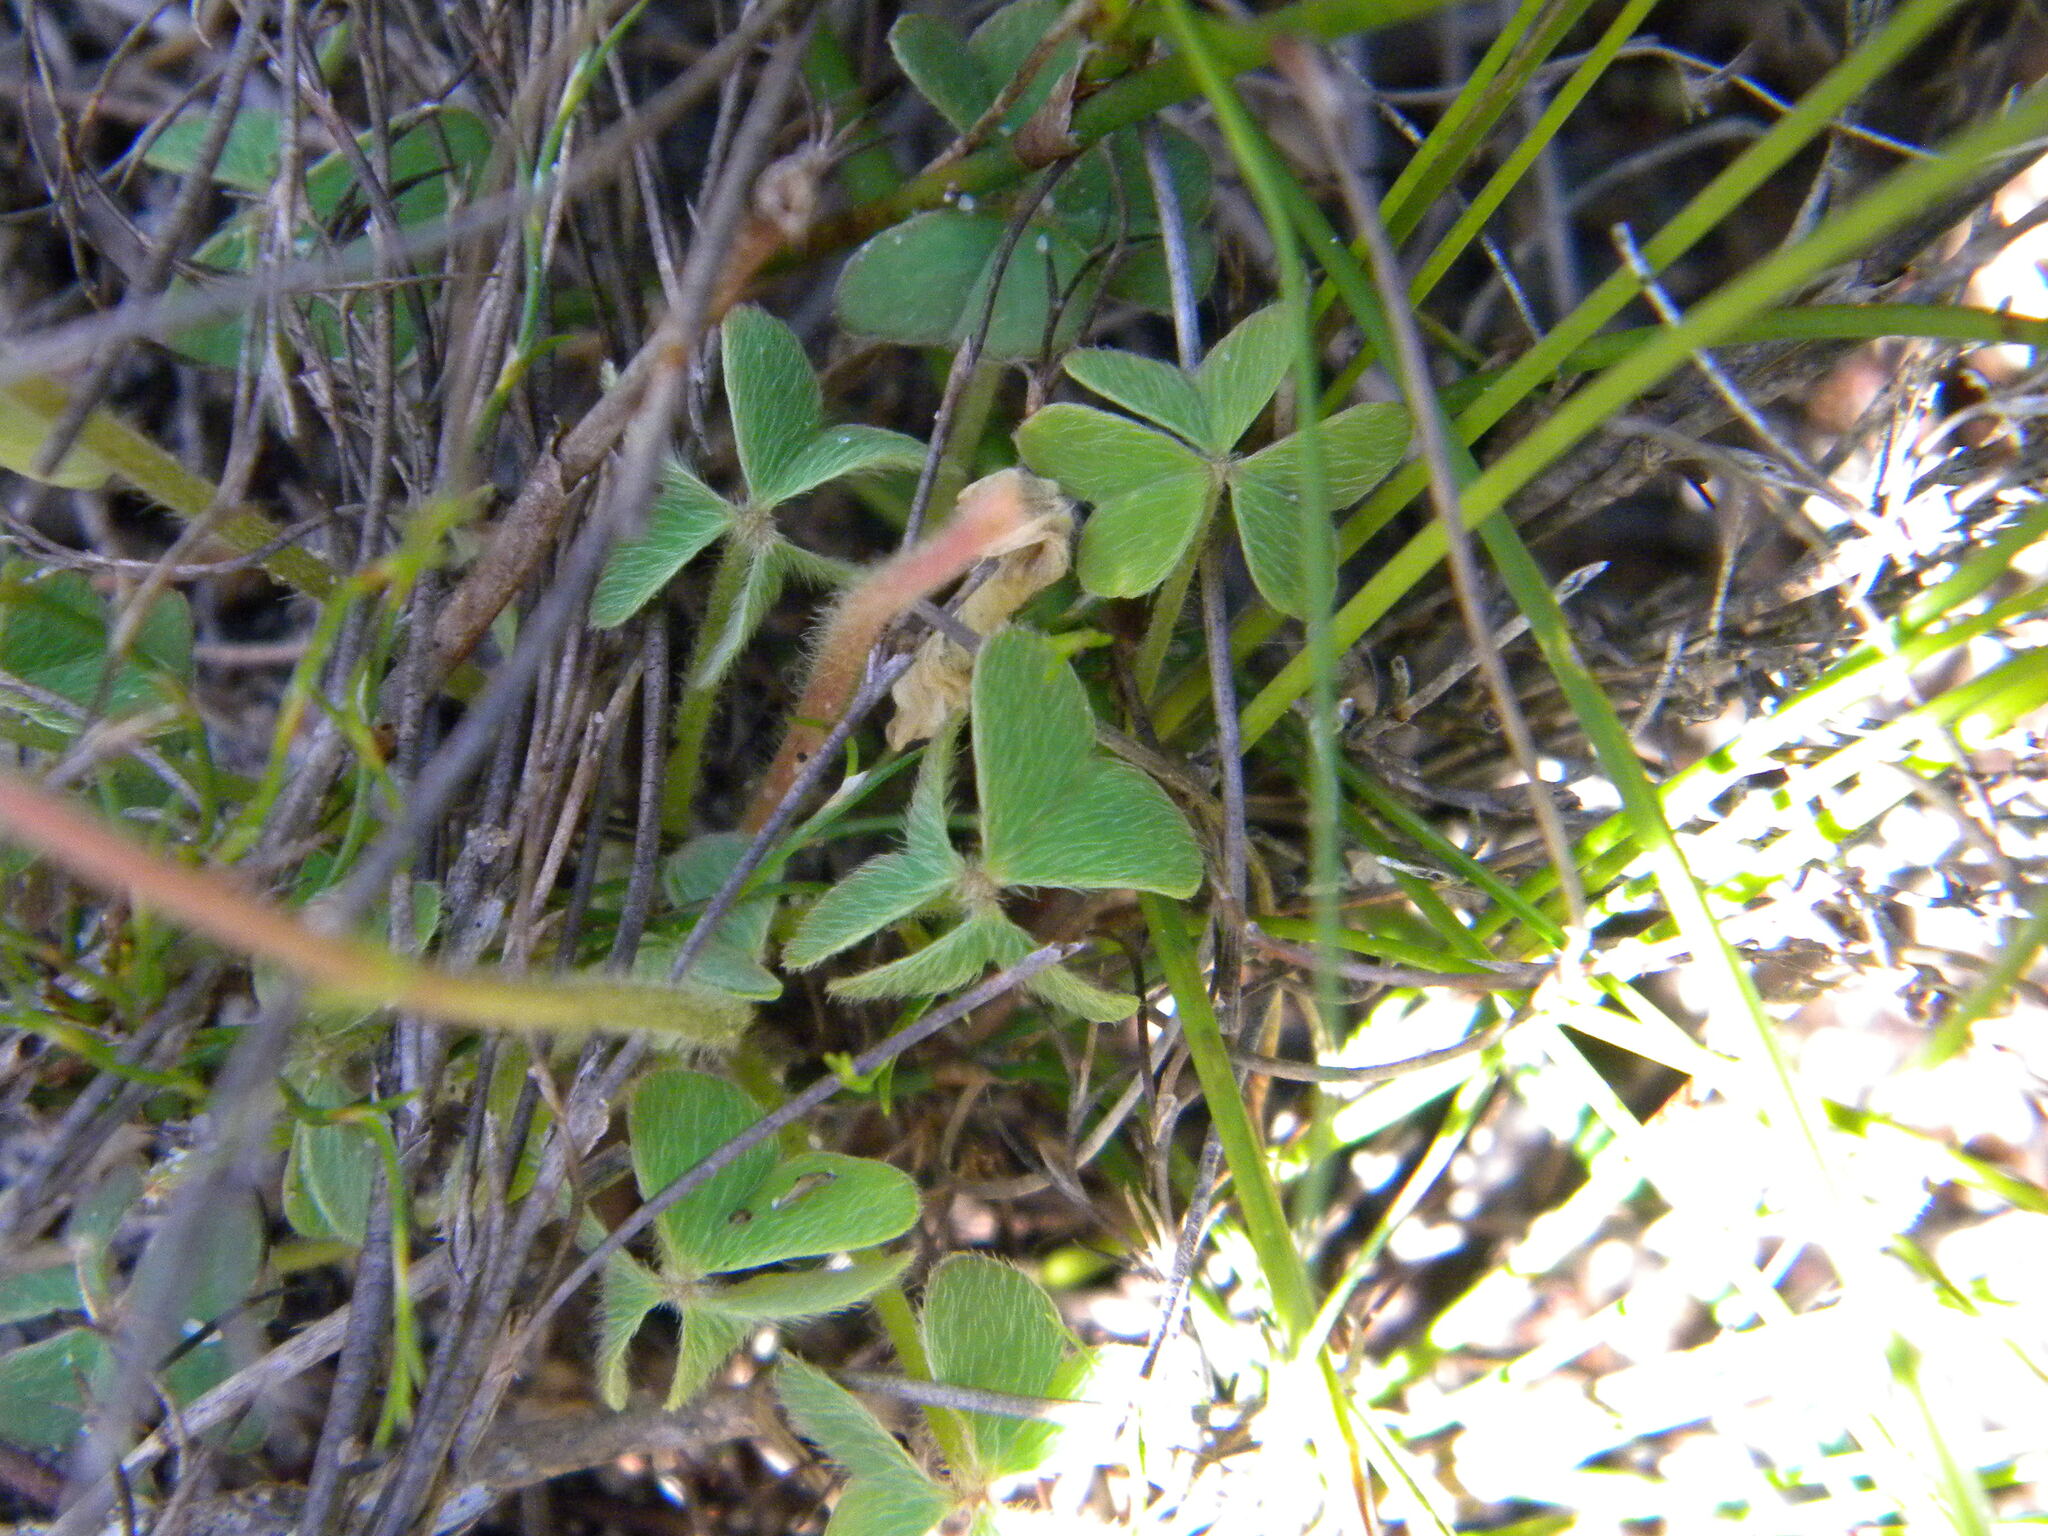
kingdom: Plantae
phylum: Tracheophyta
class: Magnoliopsida
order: Oxalidales
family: Oxalidaceae
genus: Oxalis
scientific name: Oxalis lanata
